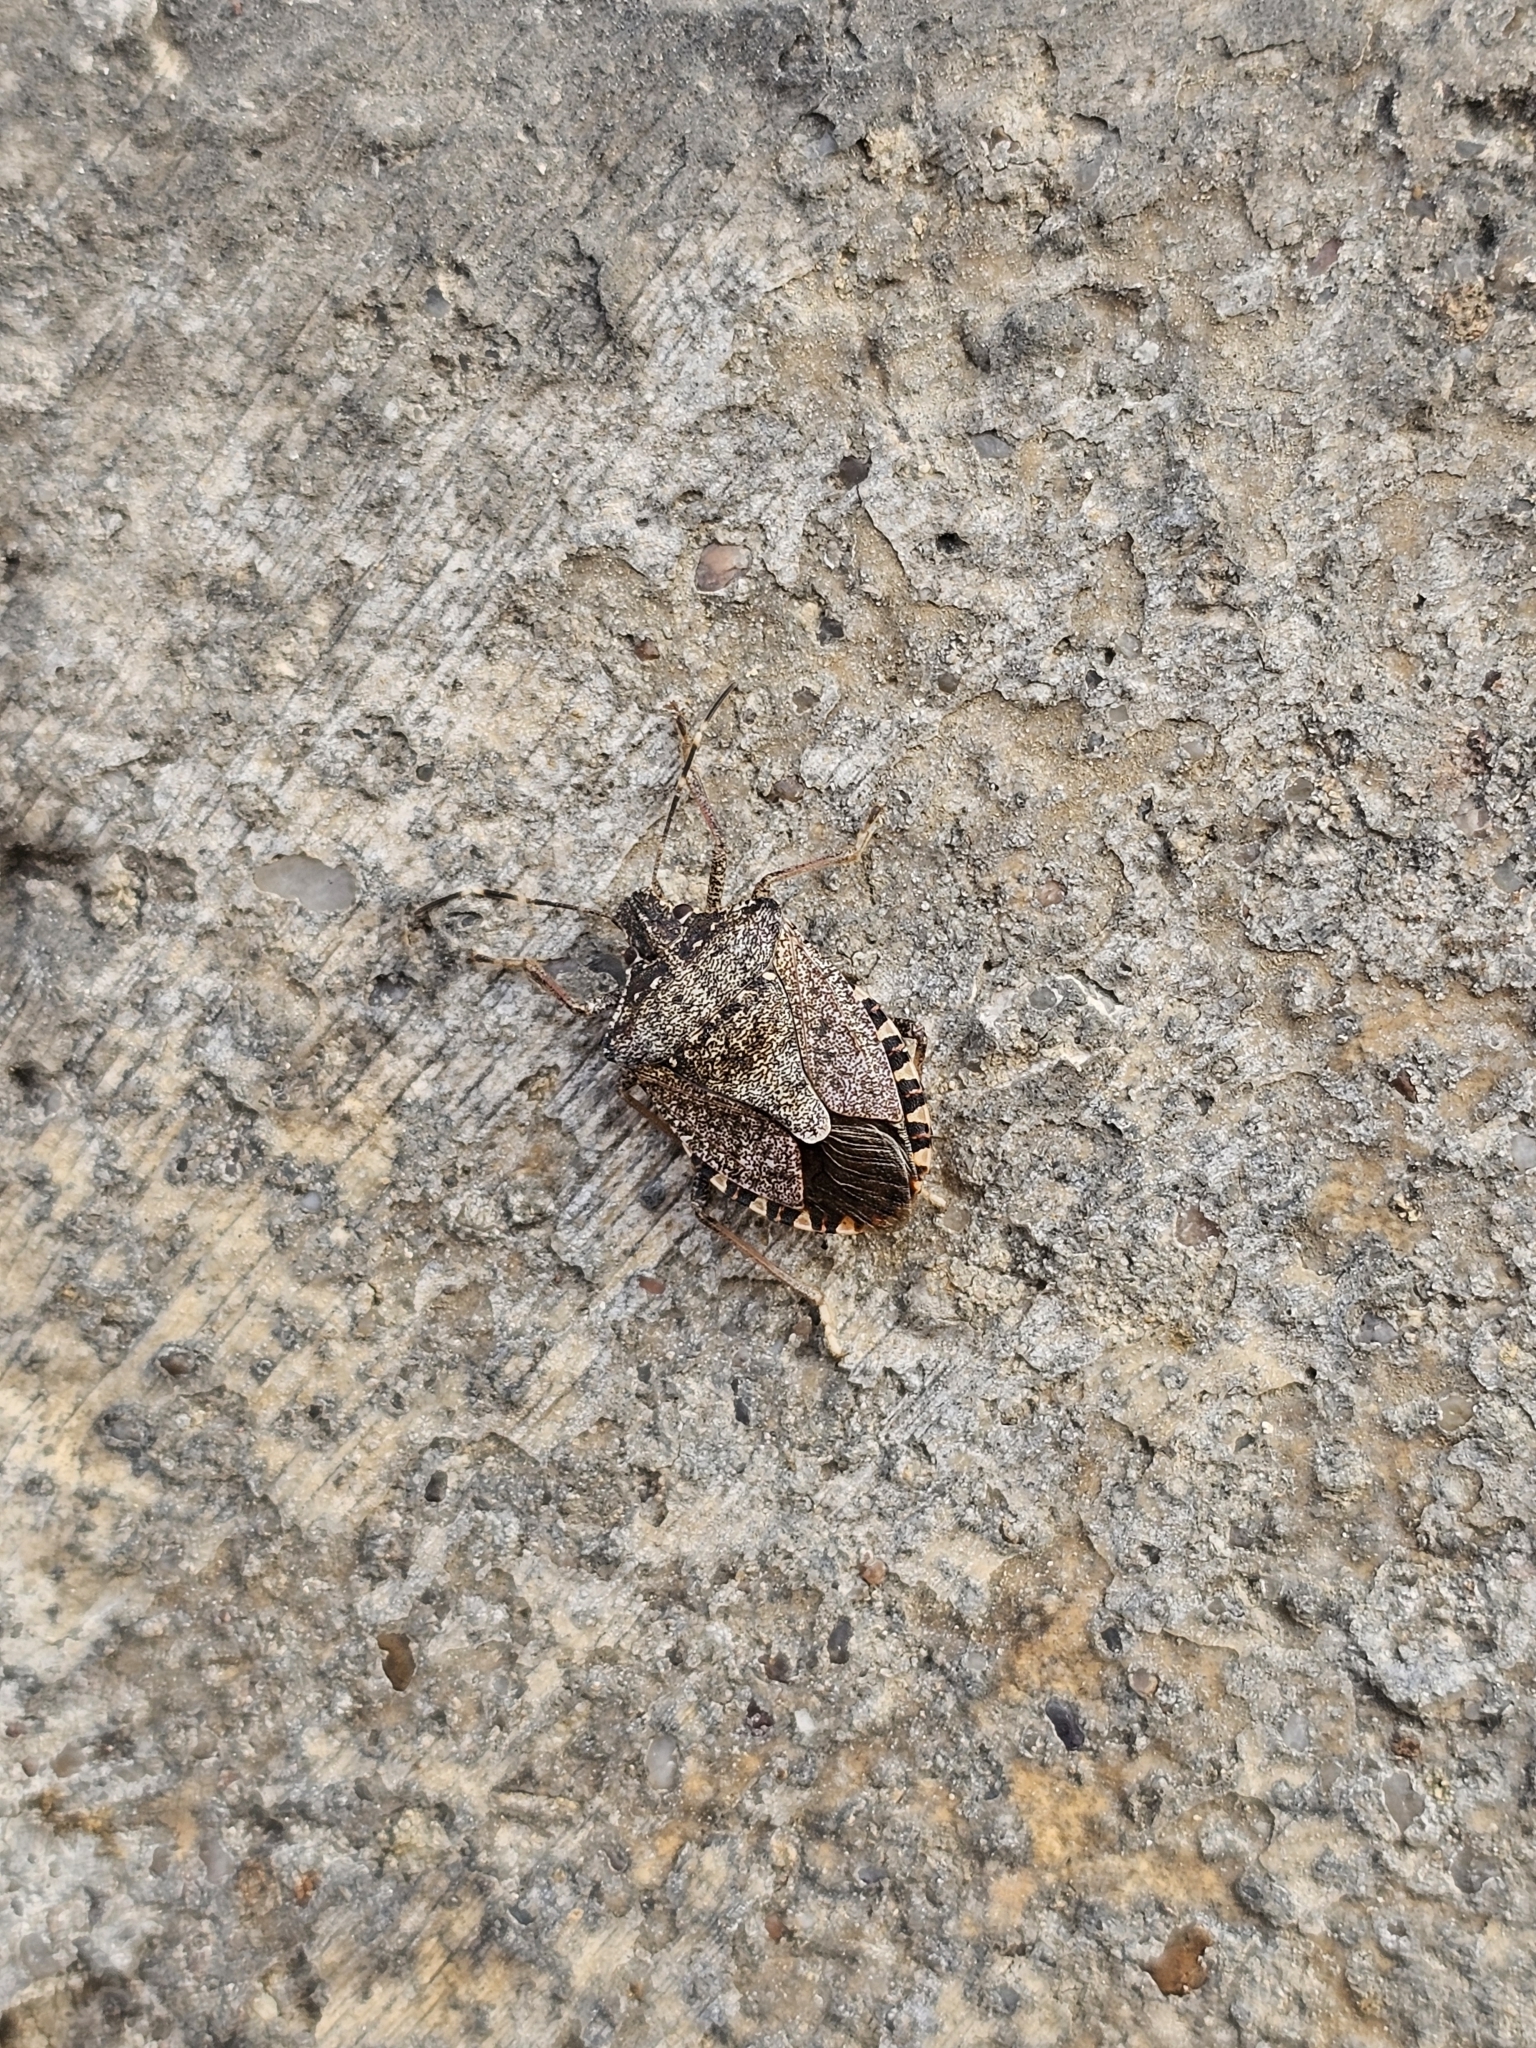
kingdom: Animalia
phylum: Arthropoda
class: Insecta
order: Hemiptera
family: Pentatomidae
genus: Halyomorpha
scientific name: Halyomorpha halys
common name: Brown marmorated stink bug
